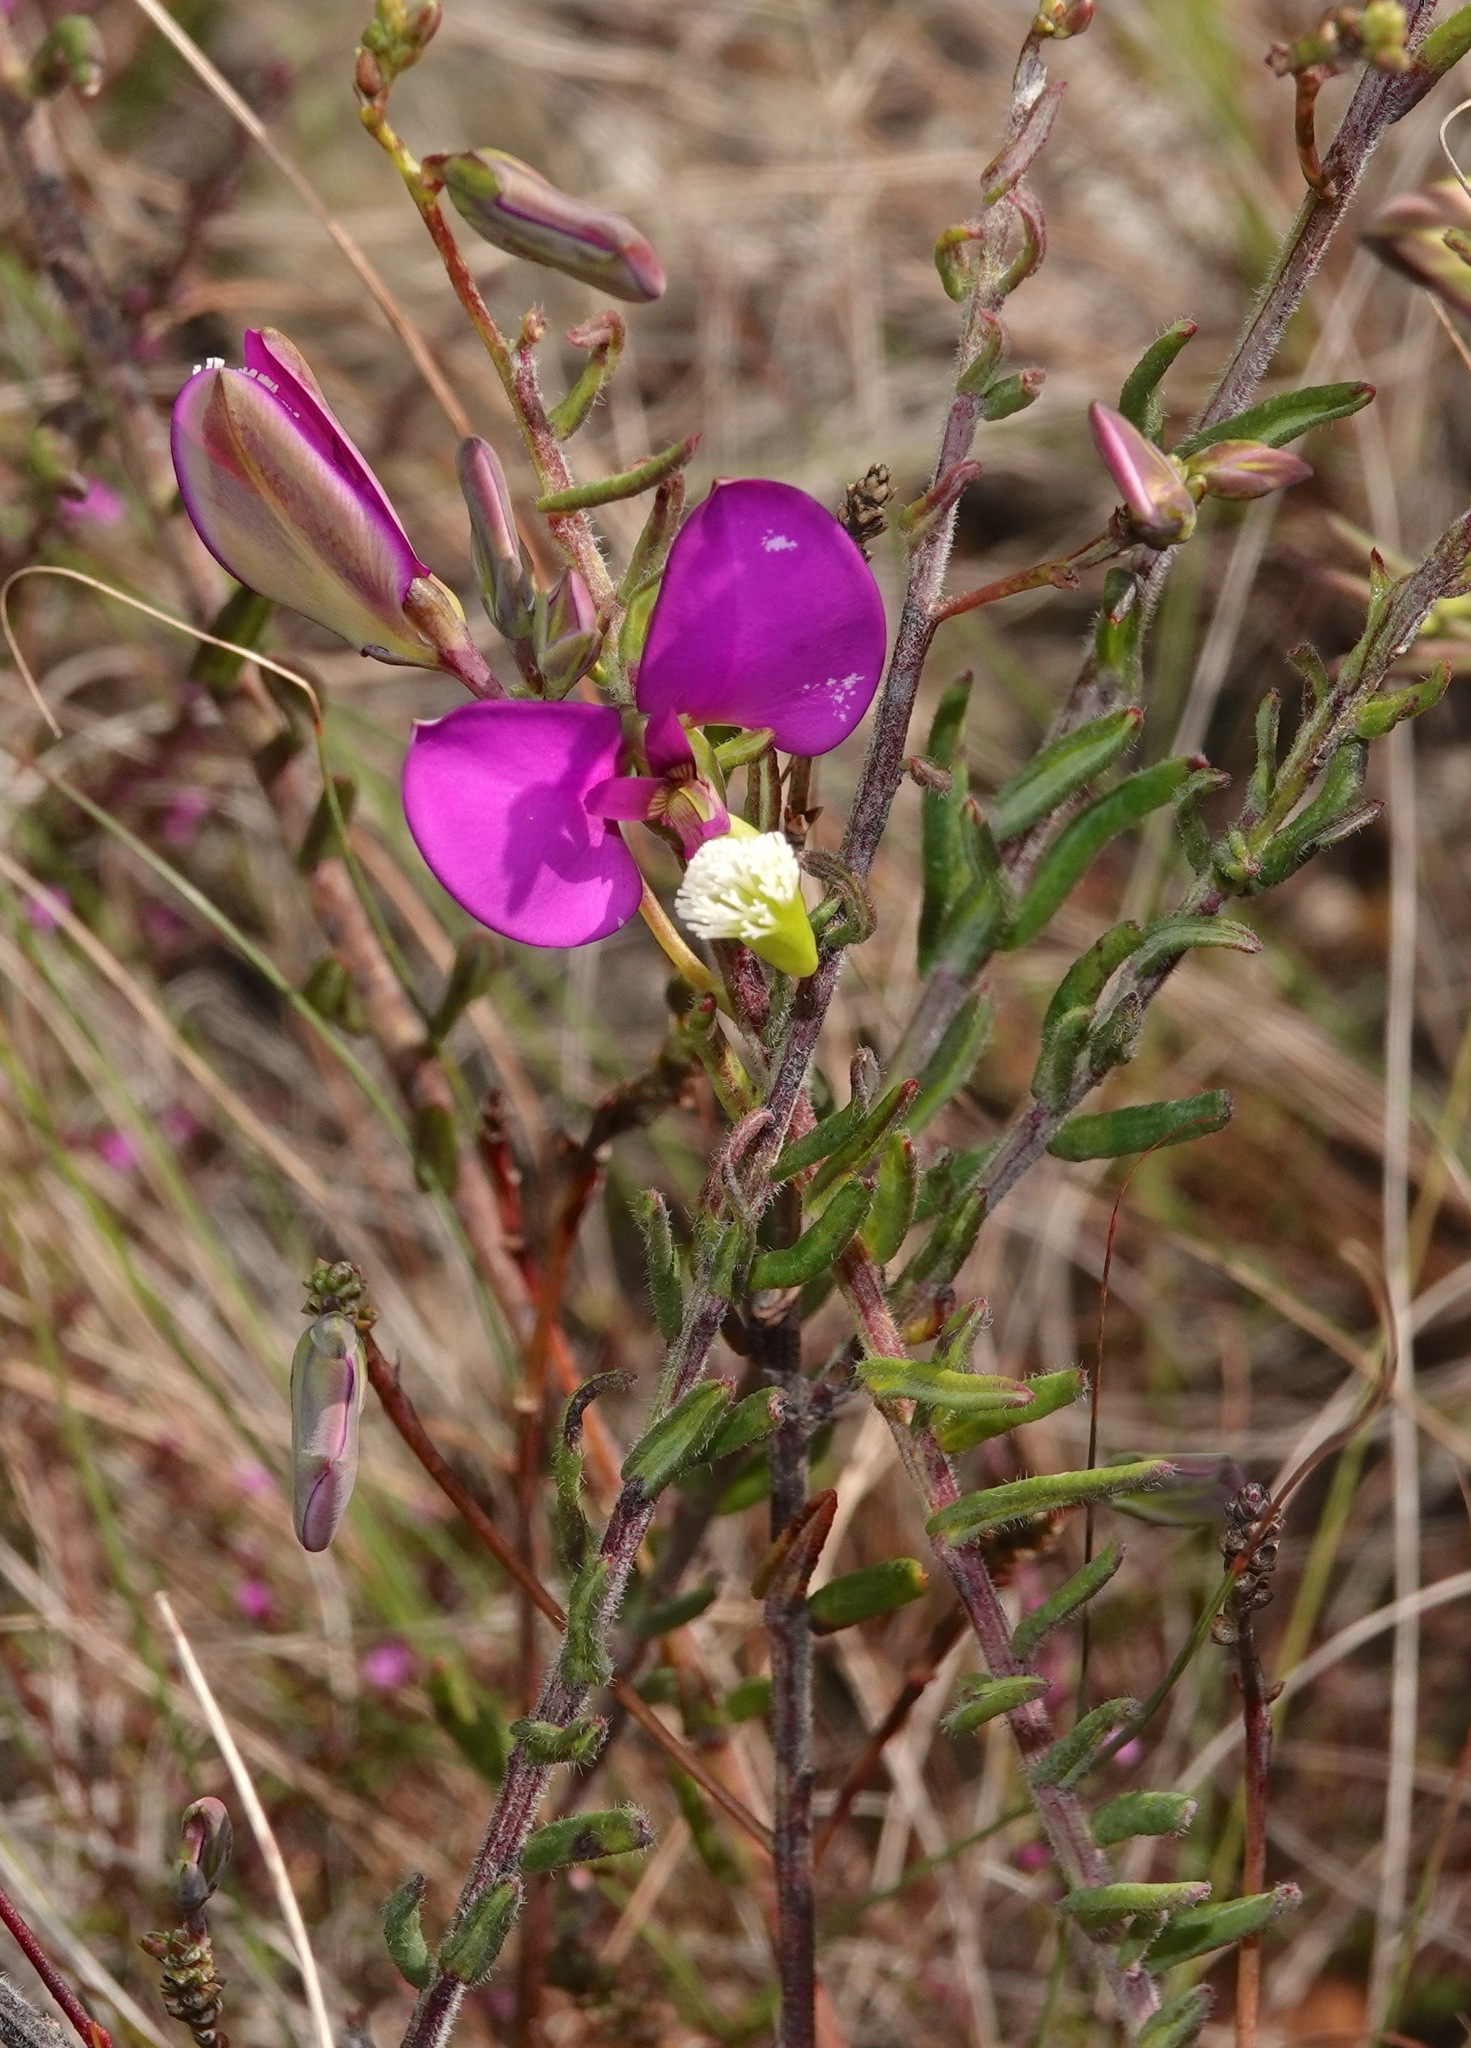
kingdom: Plantae
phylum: Tracheophyta
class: Magnoliopsida
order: Fabales
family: Polygalaceae
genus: Polygala
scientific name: Polygala peduncularis
